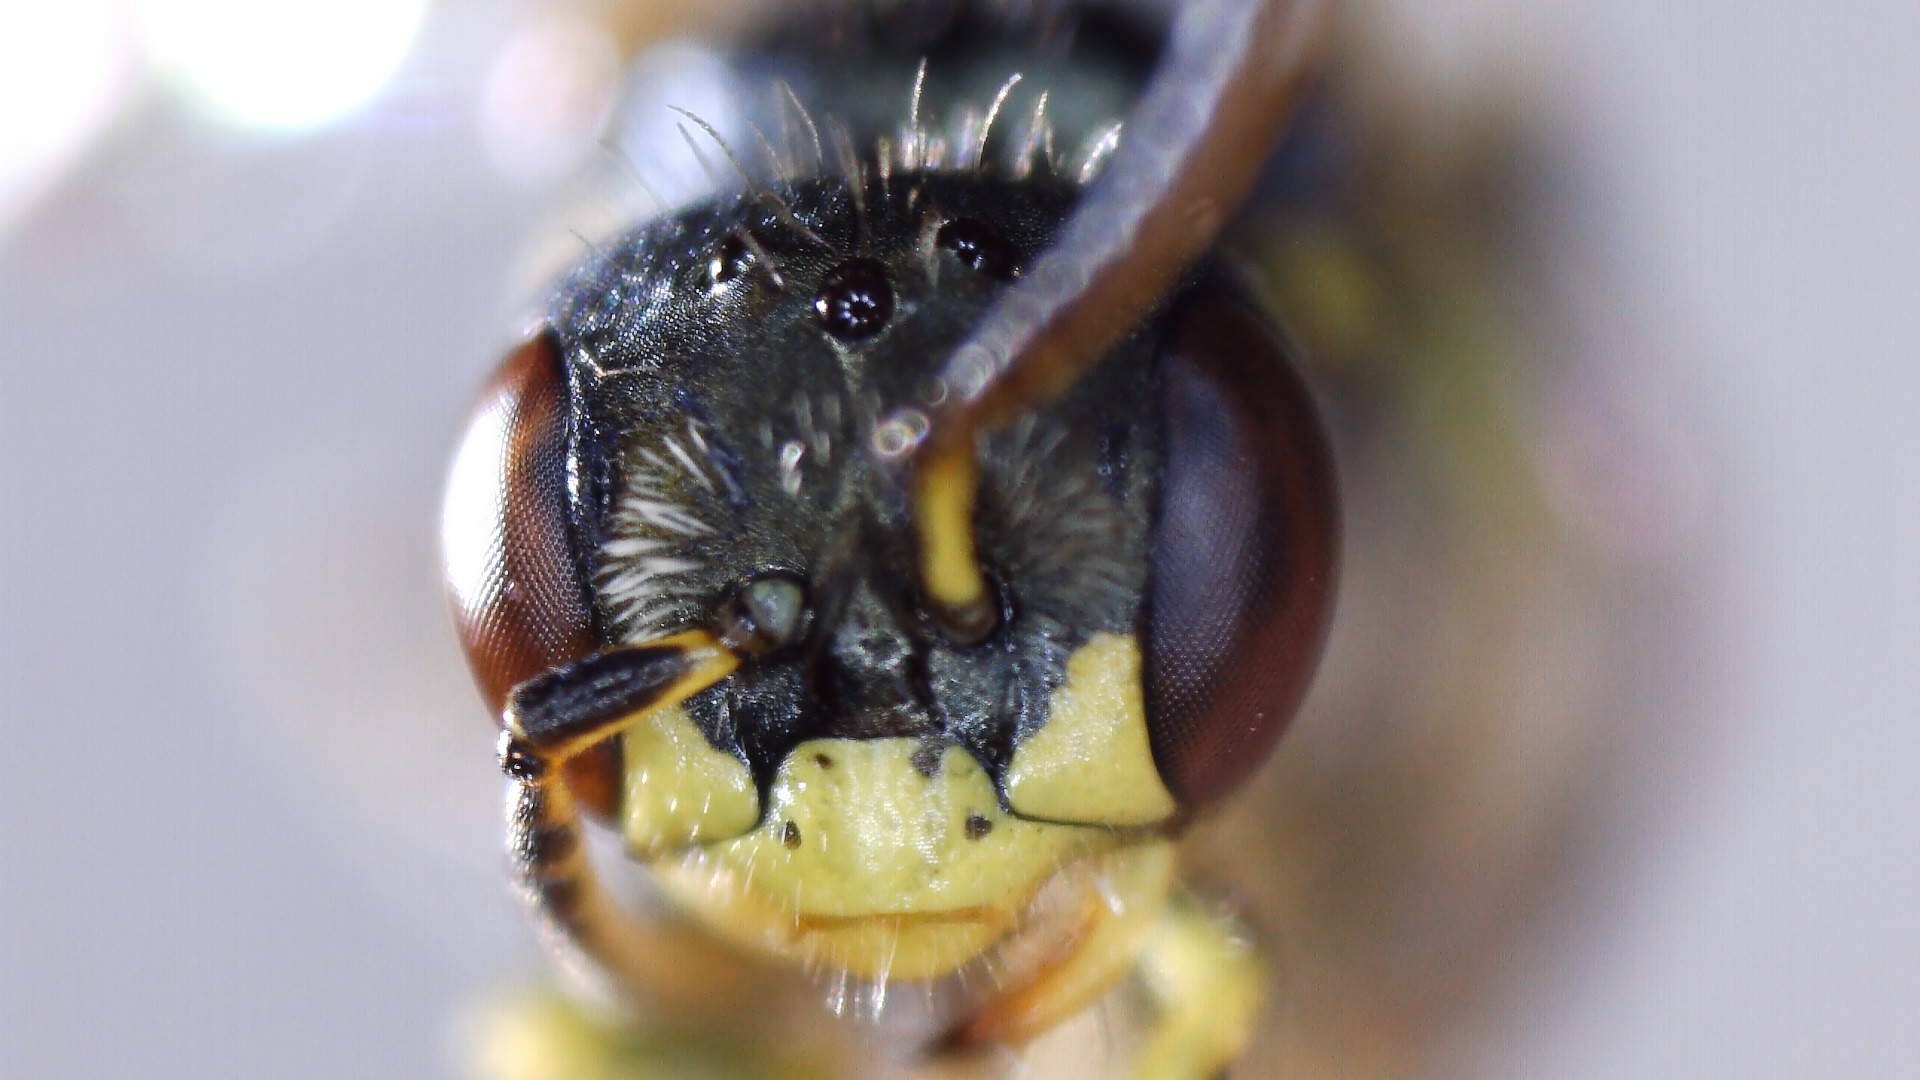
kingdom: Animalia
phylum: Arthropoda
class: Insecta
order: Hymenoptera
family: Andrenidae
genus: Perdita
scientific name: Perdita octomaculata
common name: Eight-spotted miner bee
